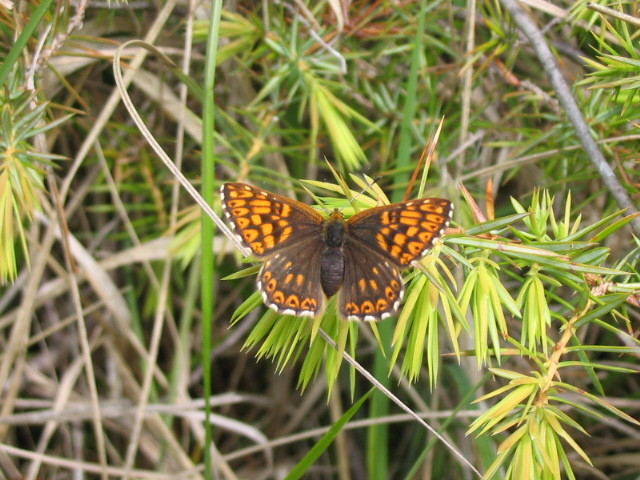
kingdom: Animalia
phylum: Arthropoda
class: Insecta
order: Lepidoptera
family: Riodinidae
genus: Hamearis
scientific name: Hamearis lucina
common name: Duke of burgundy fritillary
